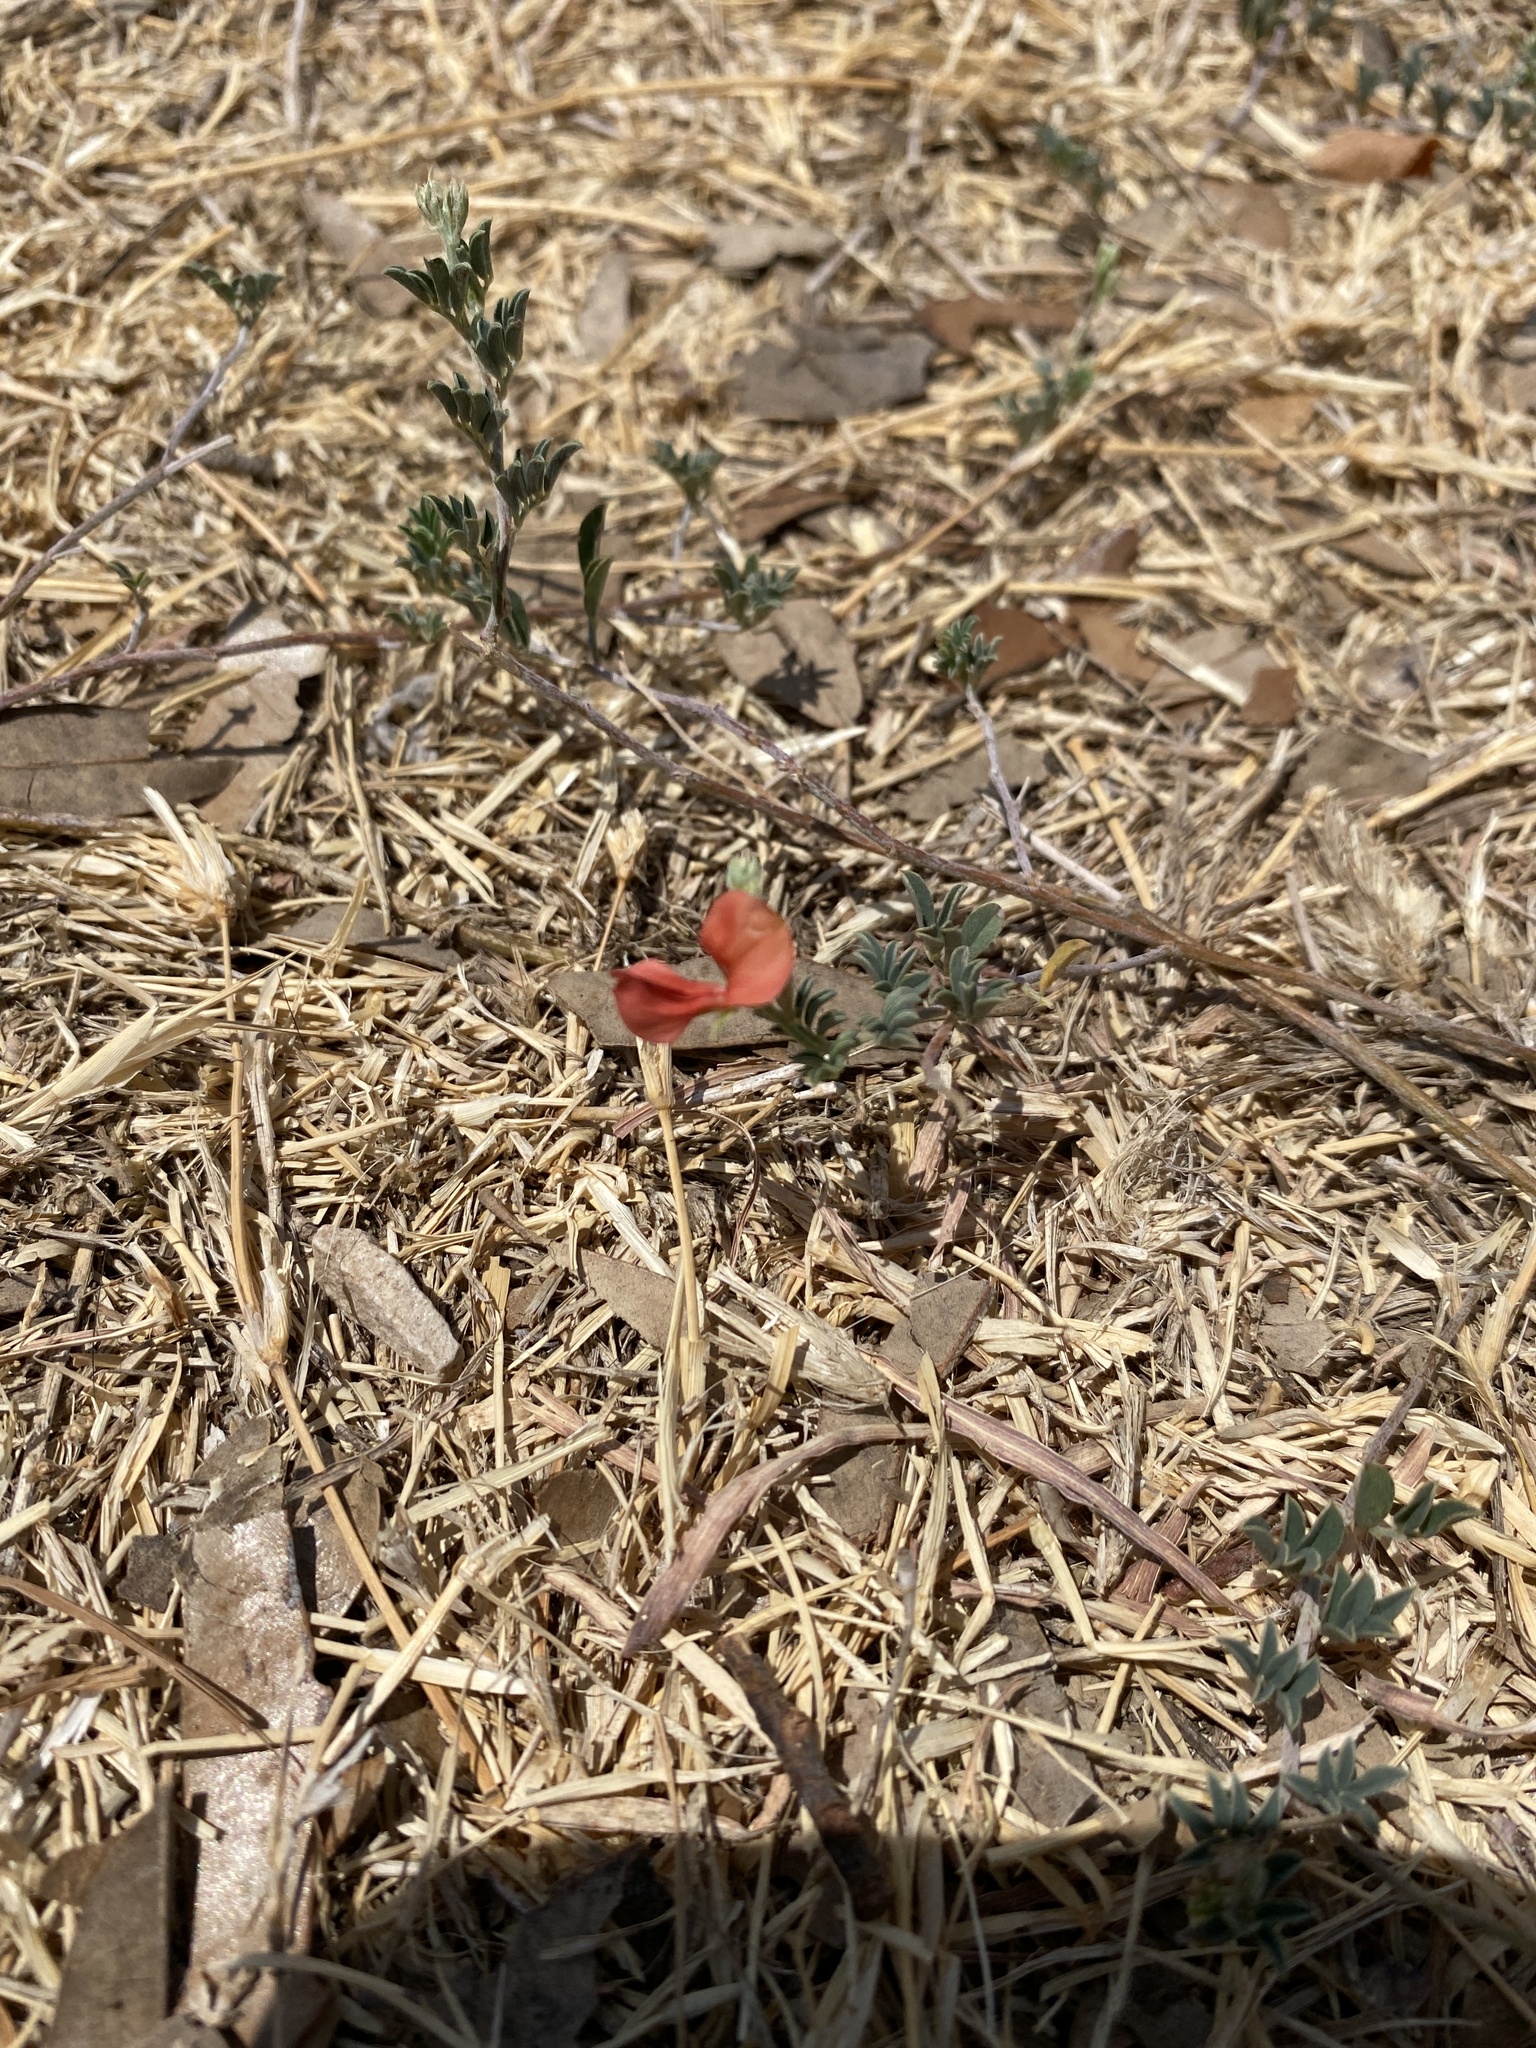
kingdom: Plantae
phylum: Tracheophyta
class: Magnoliopsida
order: Fabales
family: Fabaceae
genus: Indigofera
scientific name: Indigofera miniata
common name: Coast indigo
